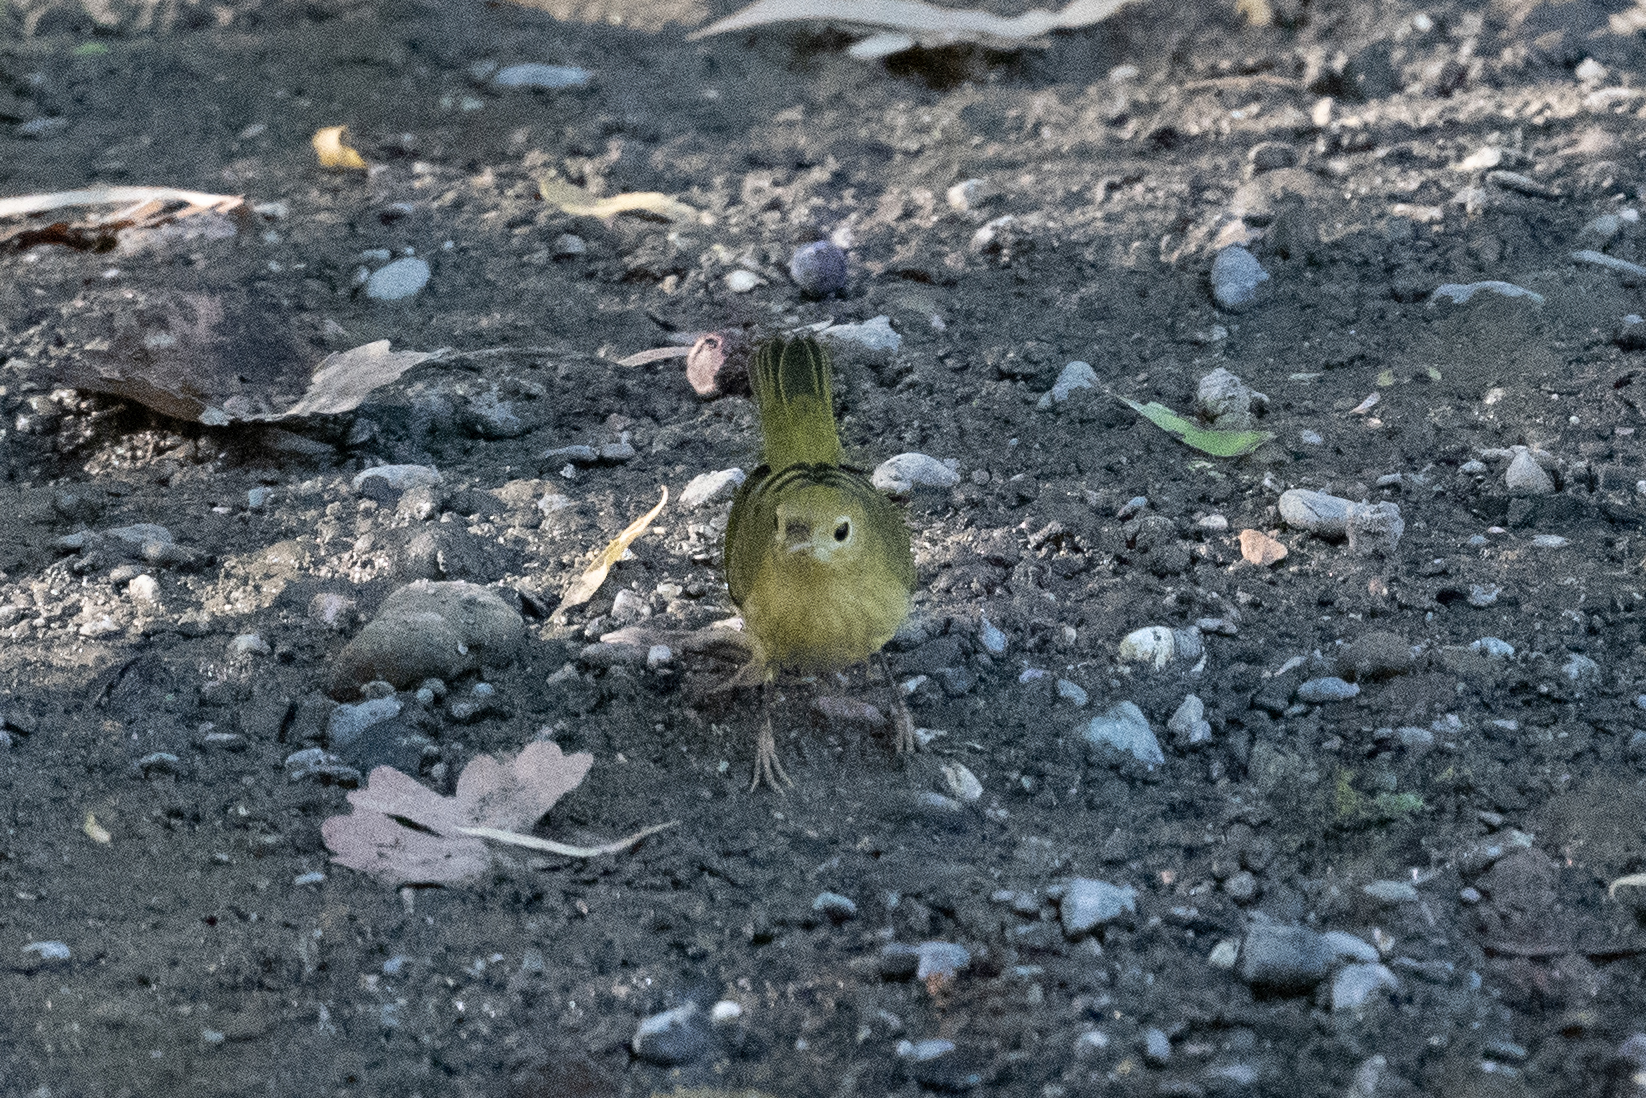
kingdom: Animalia
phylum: Chordata
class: Aves
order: Passeriformes
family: Parulidae
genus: Setophaga
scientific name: Setophaga petechia
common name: Yellow warbler
